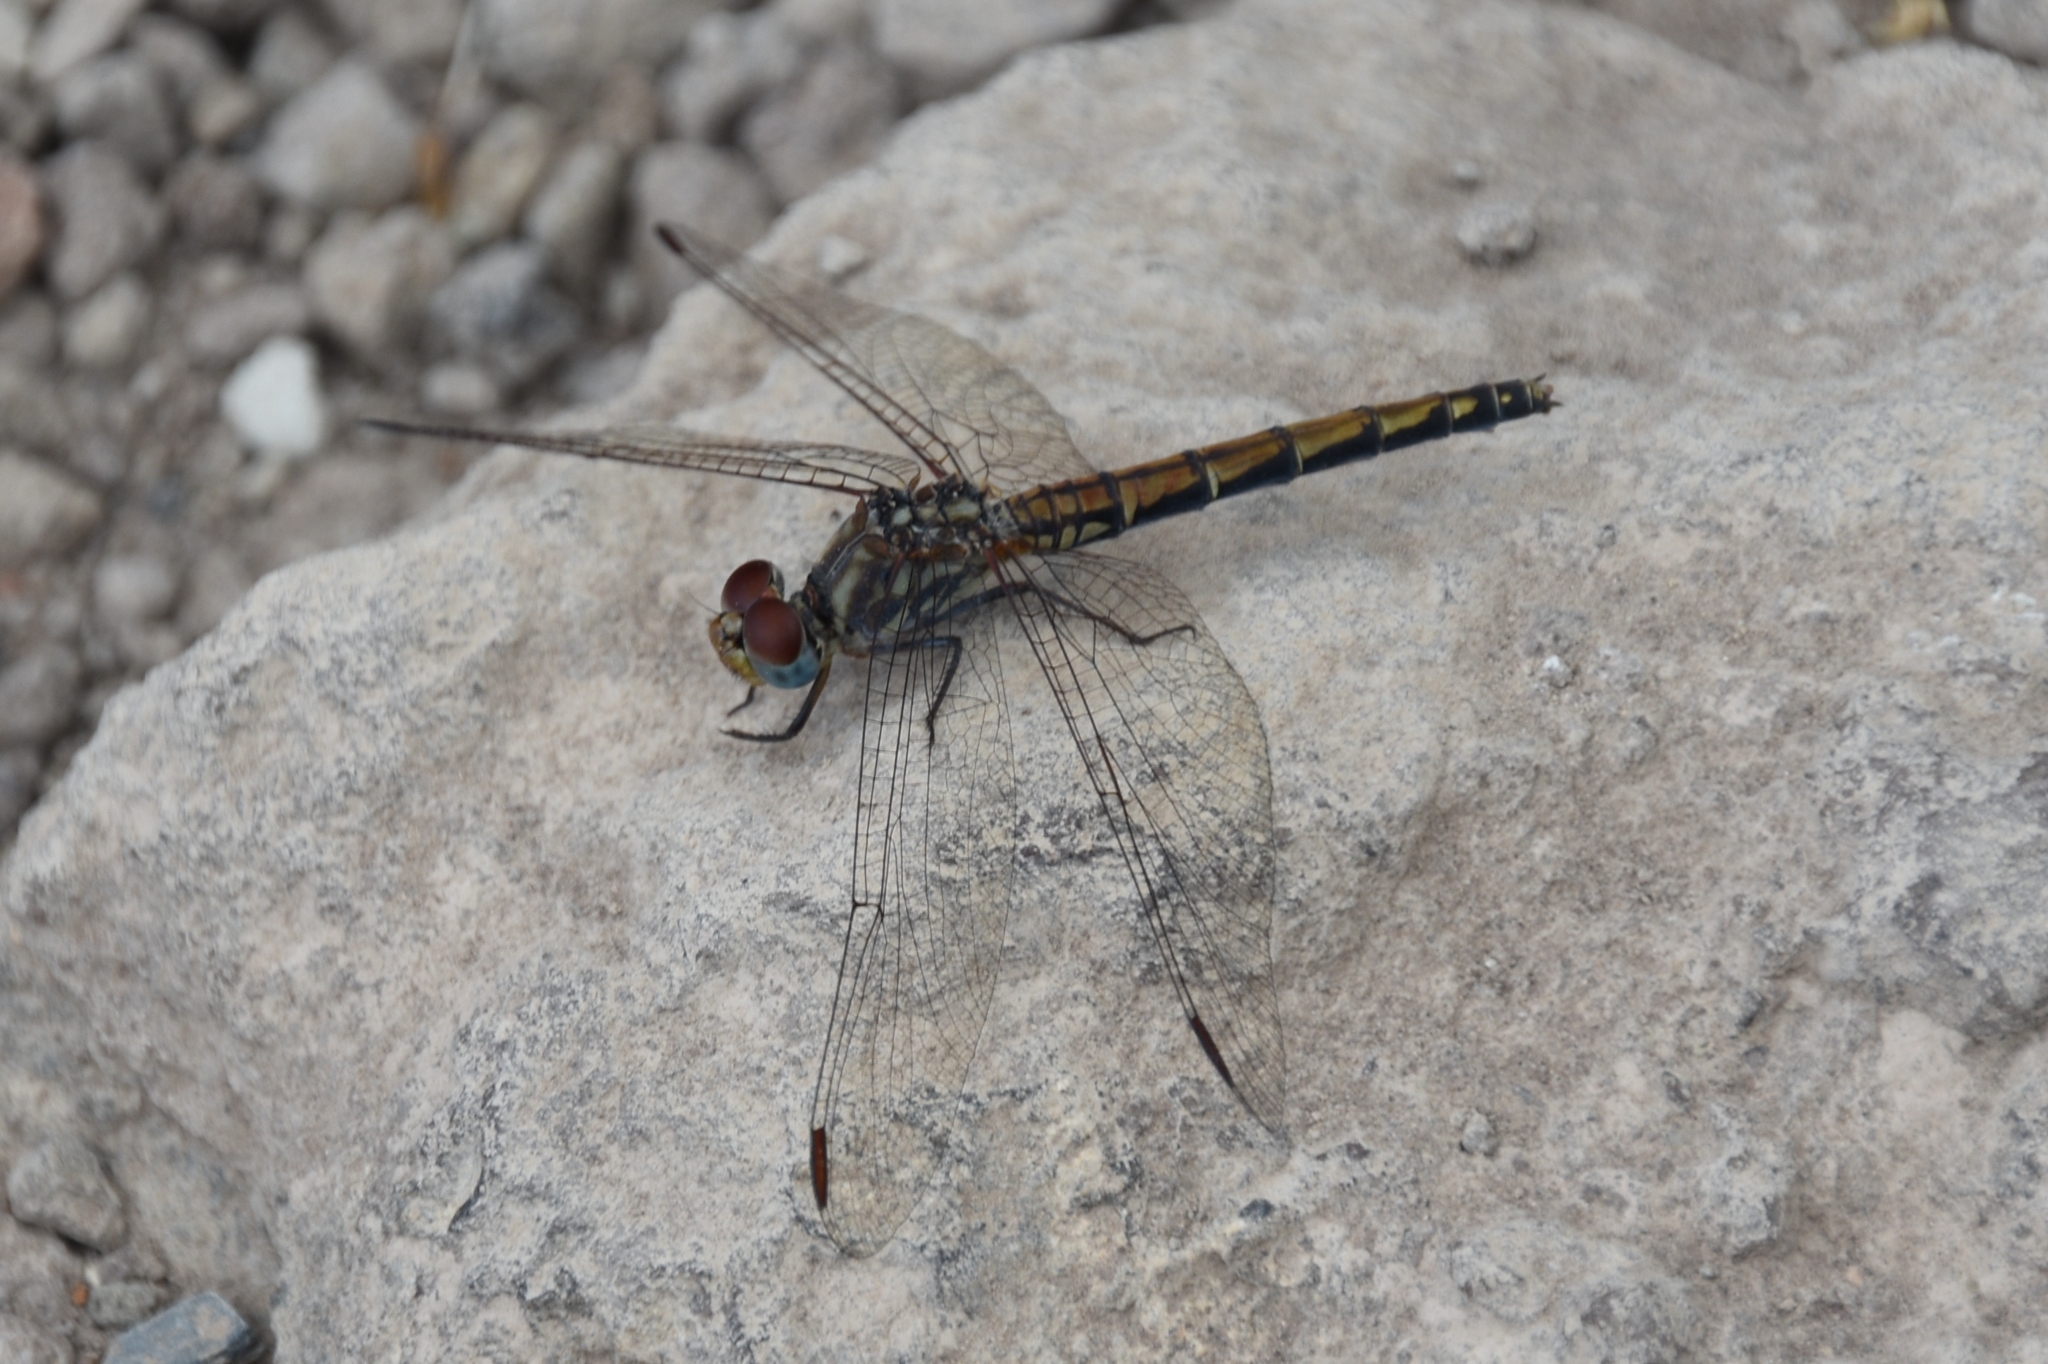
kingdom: Animalia
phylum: Arthropoda
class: Insecta
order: Odonata
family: Libellulidae
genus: Trithemis
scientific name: Trithemis arteriosa
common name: Red-veined dropwing
